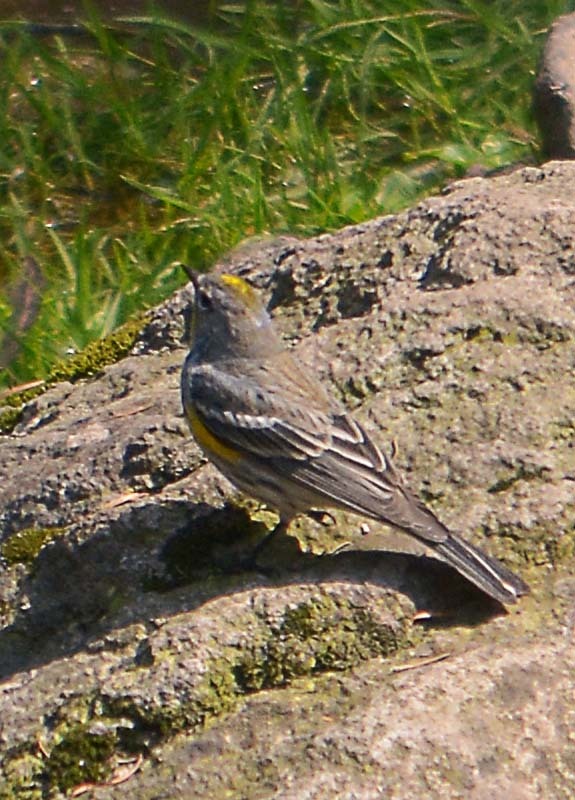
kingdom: Animalia
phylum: Chordata
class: Aves
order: Passeriformes
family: Parulidae
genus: Setophaga
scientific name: Setophaga coronata
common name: Myrtle warbler
